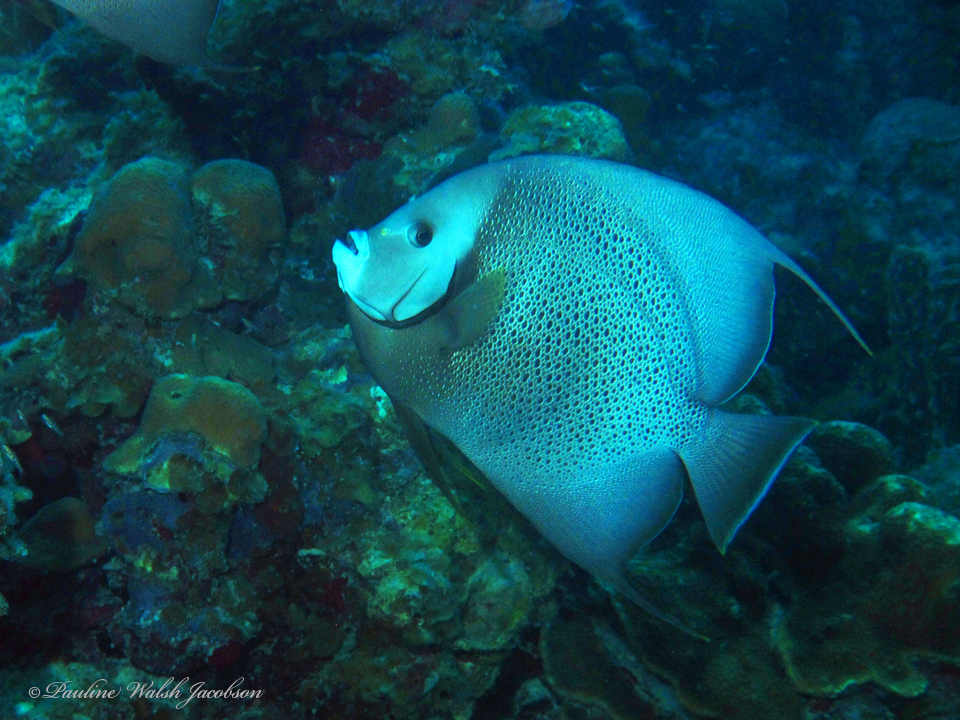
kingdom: Animalia
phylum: Chordata
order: Perciformes
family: Pomacanthidae
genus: Pomacanthus
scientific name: Pomacanthus arcuatus
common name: Gray angelfish
